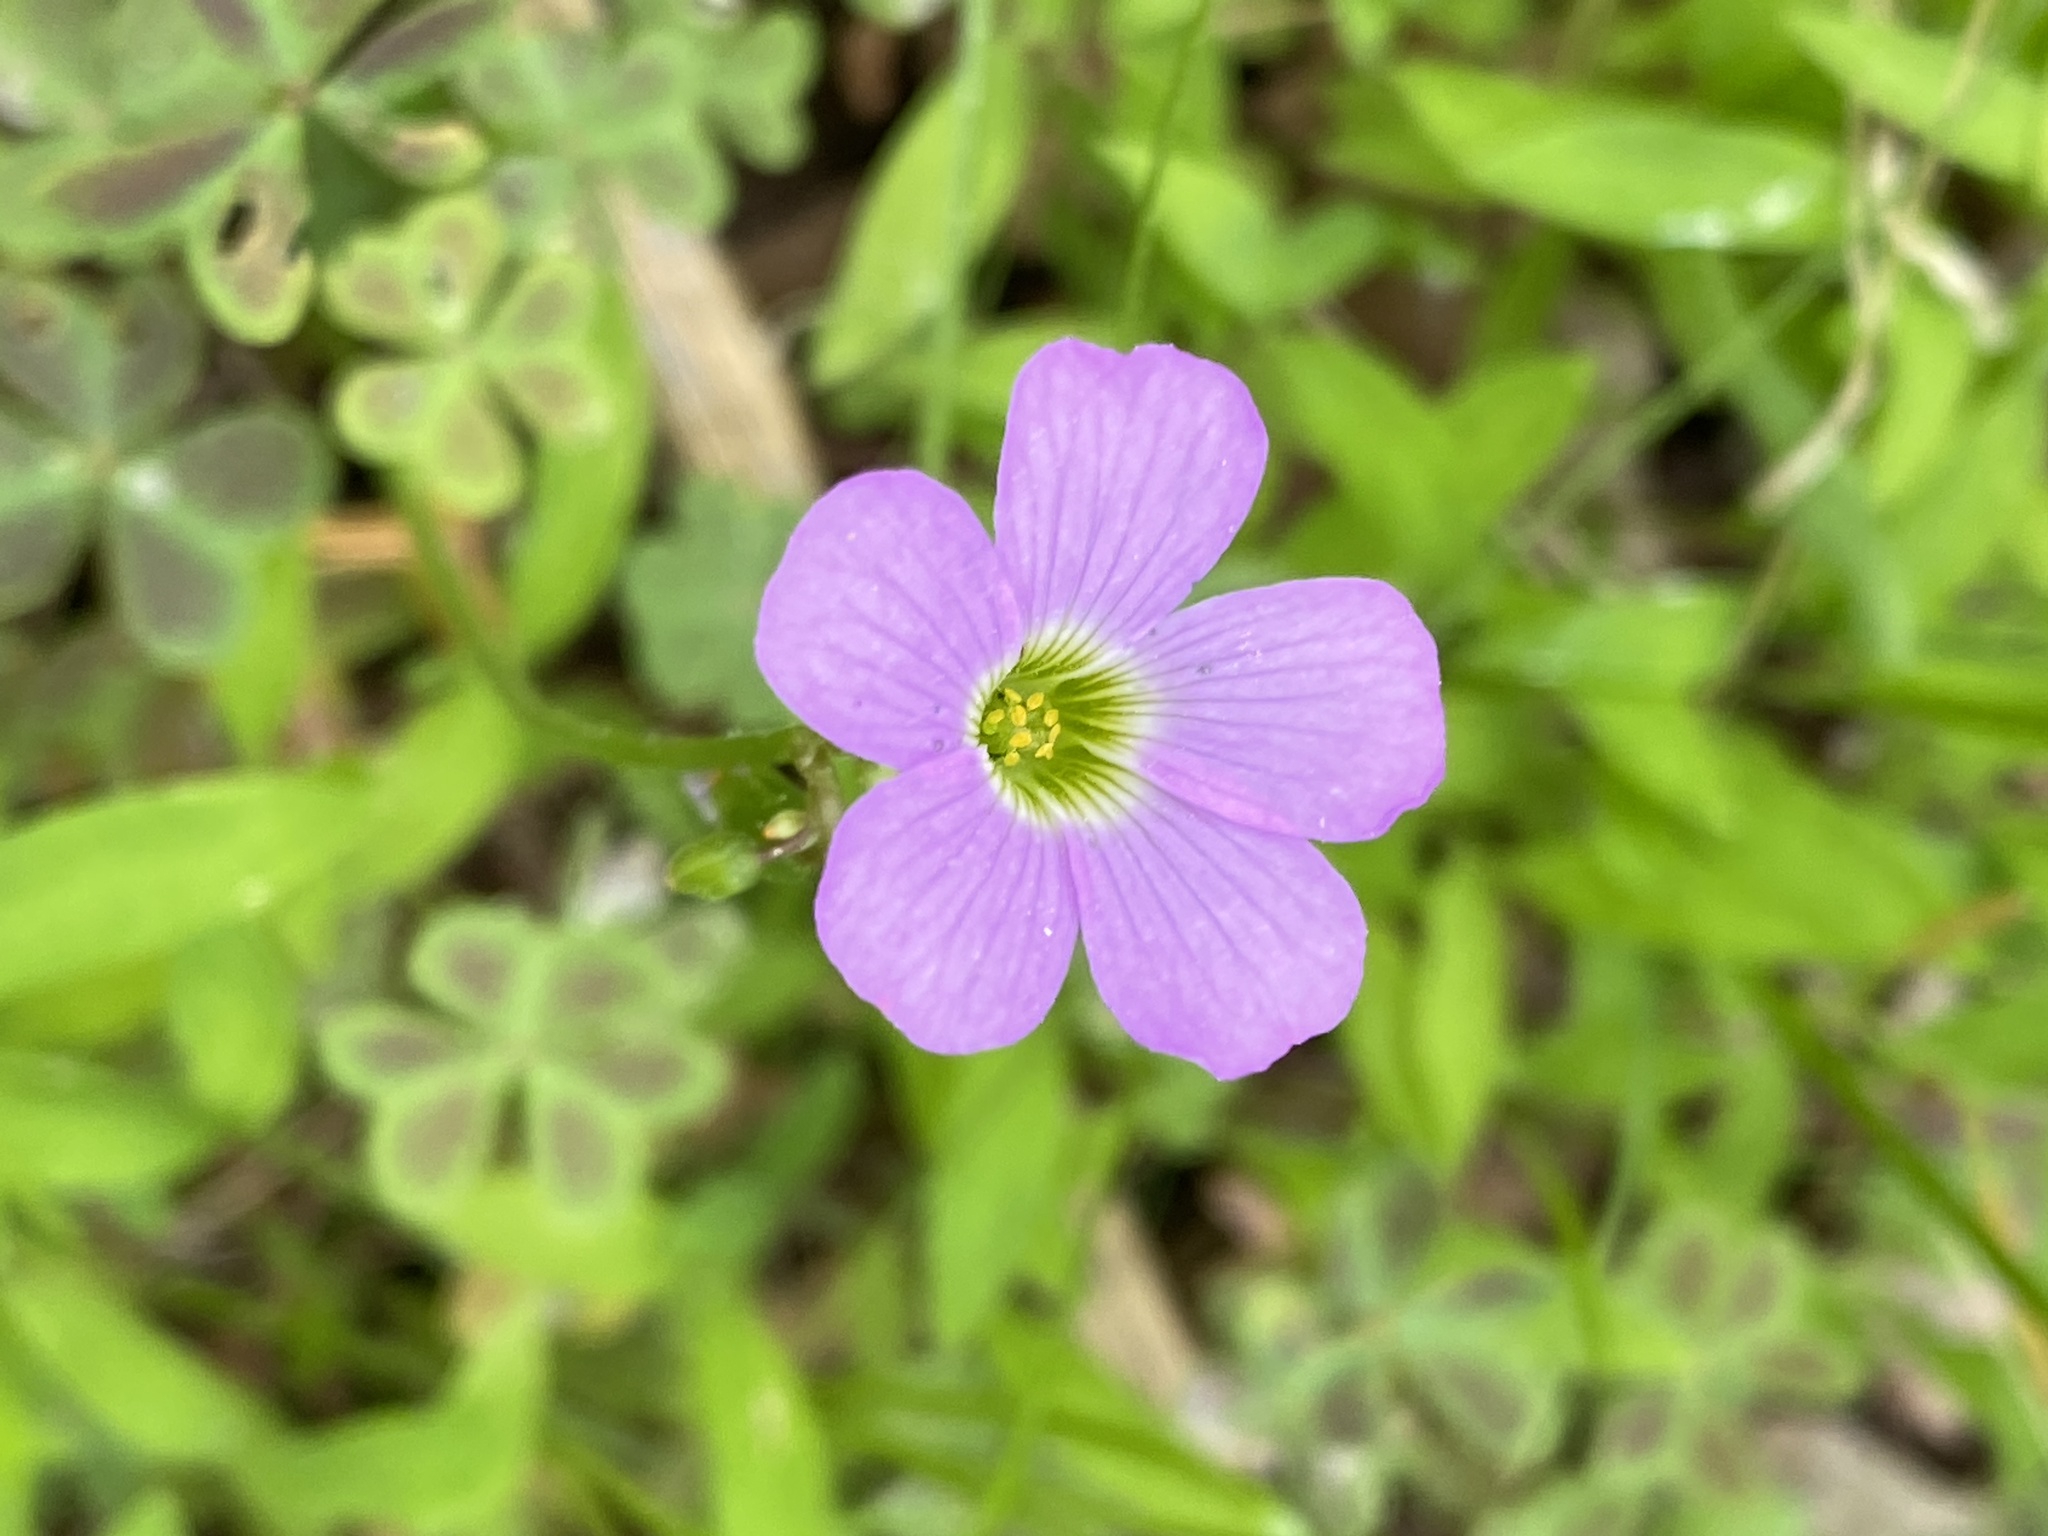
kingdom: Plantae
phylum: Tracheophyta
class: Magnoliopsida
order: Oxalidales
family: Oxalidaceae
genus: Oxalis
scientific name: Oxalis violacea
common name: Violet wood-sorrel
